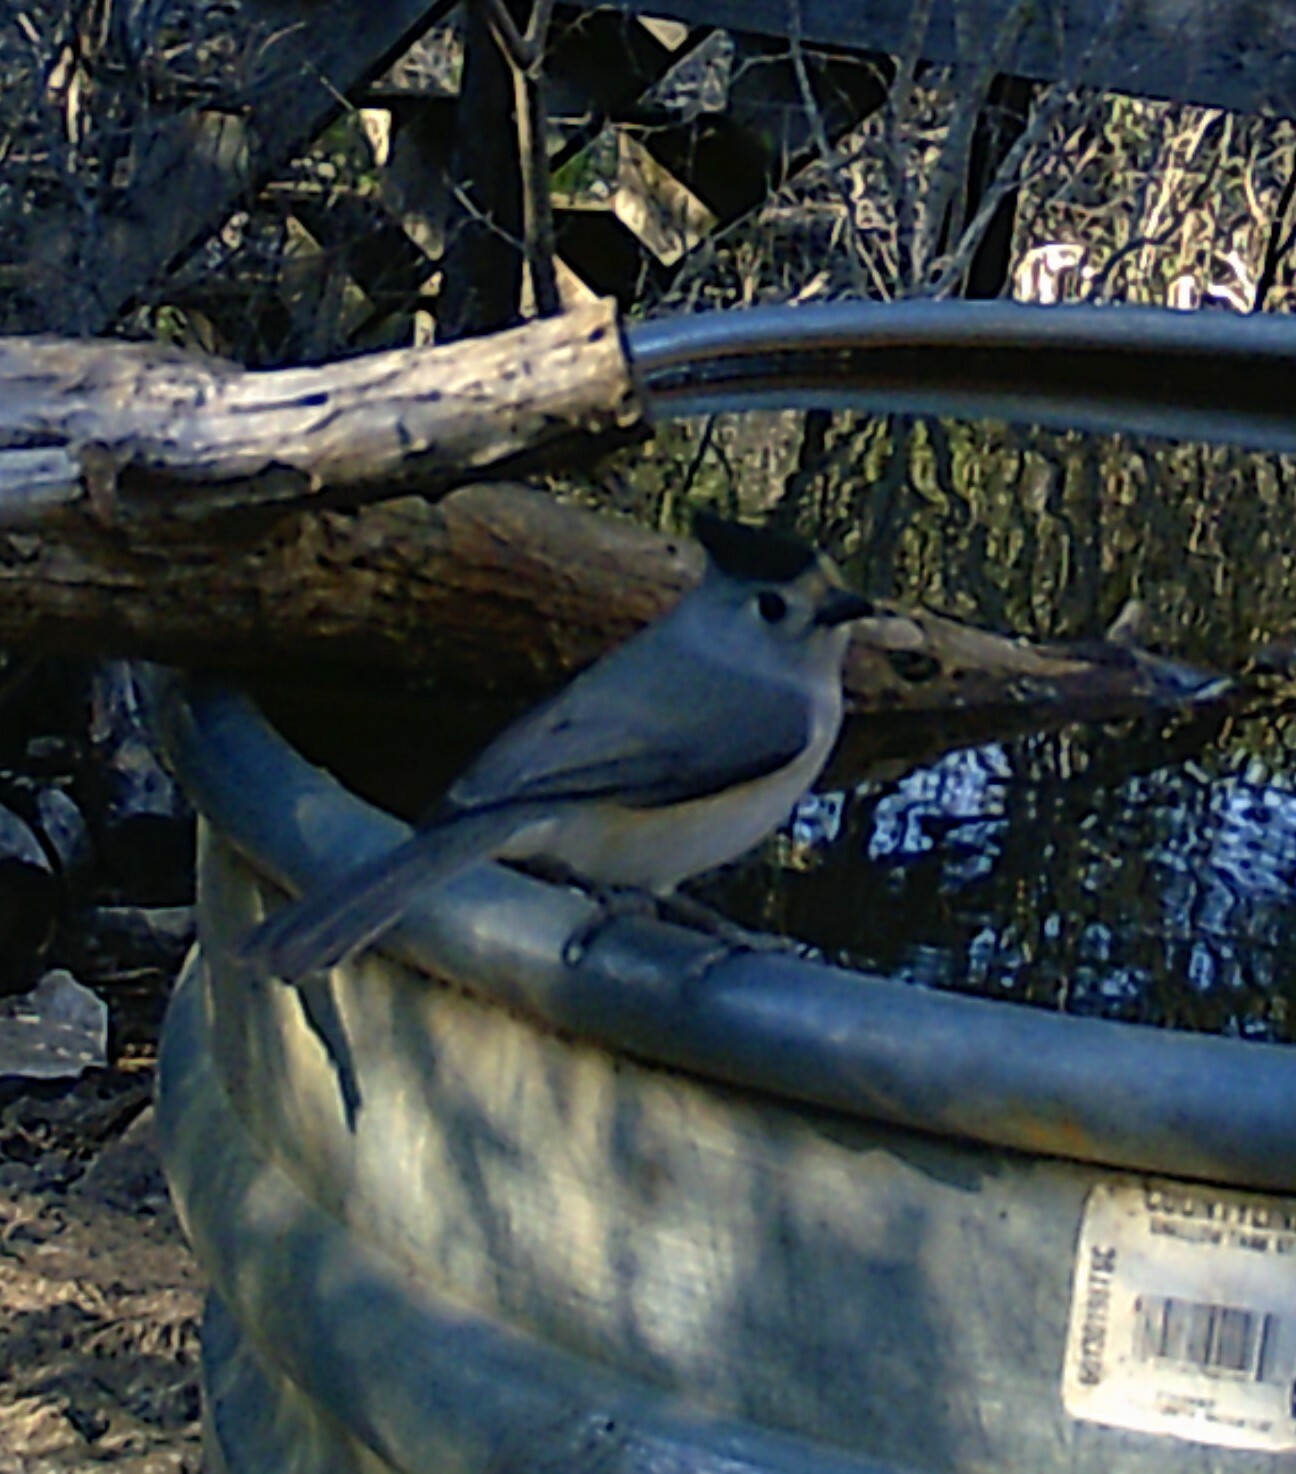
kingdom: Animalia
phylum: Chordata
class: Aves
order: Passeriformes
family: Paridae
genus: Baeolophus
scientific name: Baeolophus atricristatus
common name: Black-crested titmouse
